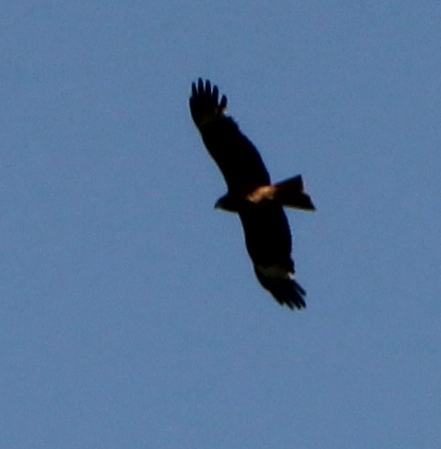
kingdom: Animalia
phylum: Chordata
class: Aves
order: Accipitriformes
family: Accipitridae
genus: Milvus
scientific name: Milvus migrans
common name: Black kite
